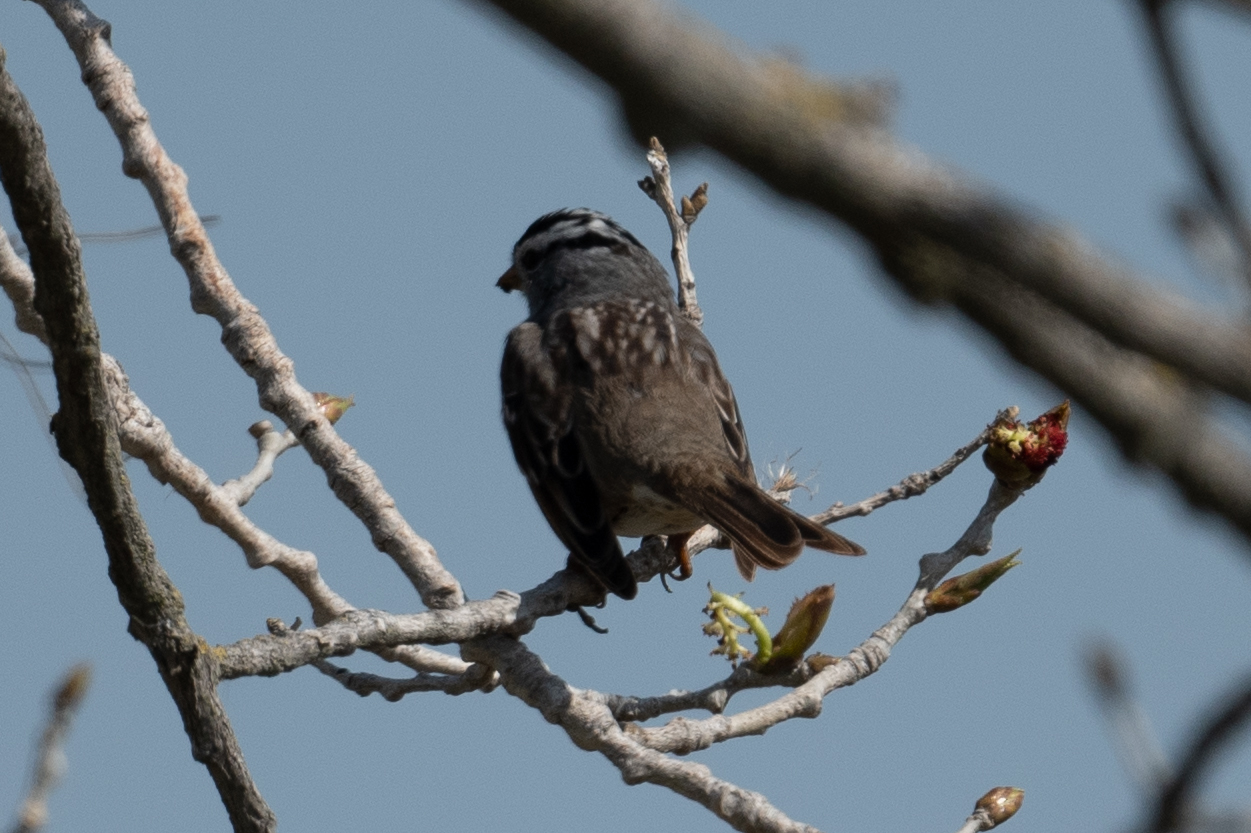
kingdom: Animalia
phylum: Chordata
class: Aves
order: Passeriformes
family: Passerellidae
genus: Zonotrichia
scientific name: Zonotrichia leucophrys
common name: White-crowned sparrow
